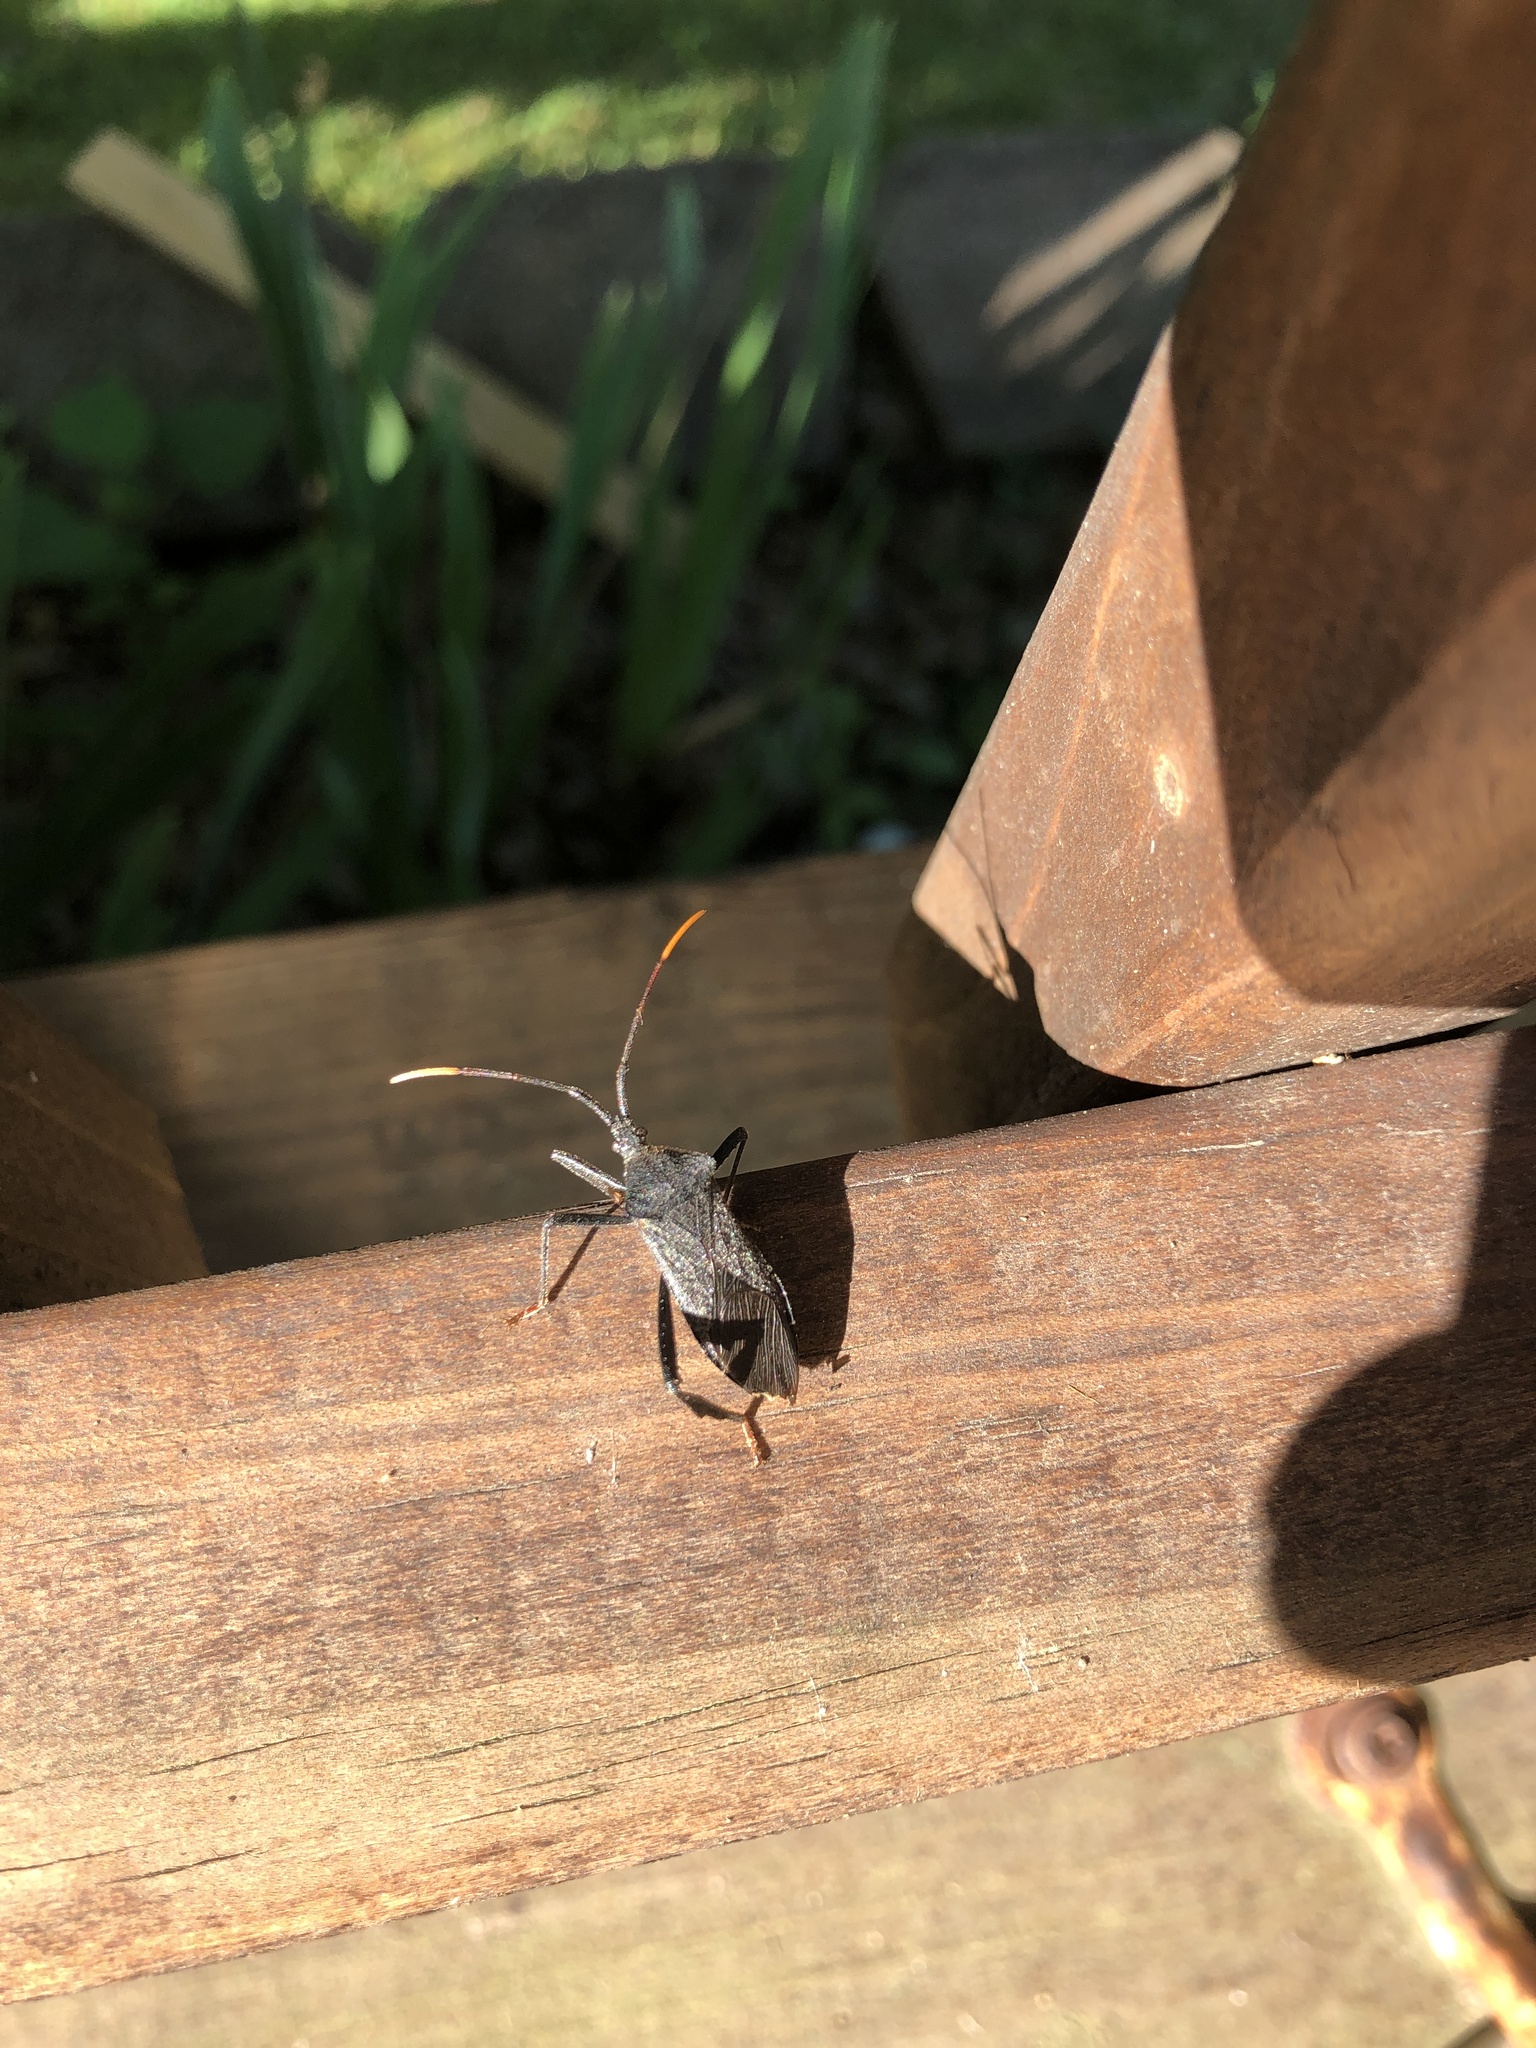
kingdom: Animalia
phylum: Arthropoda
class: Insecta
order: Hemiptera
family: Coreidae
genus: Acanthocephala
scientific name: Acanthocephala terminalis
